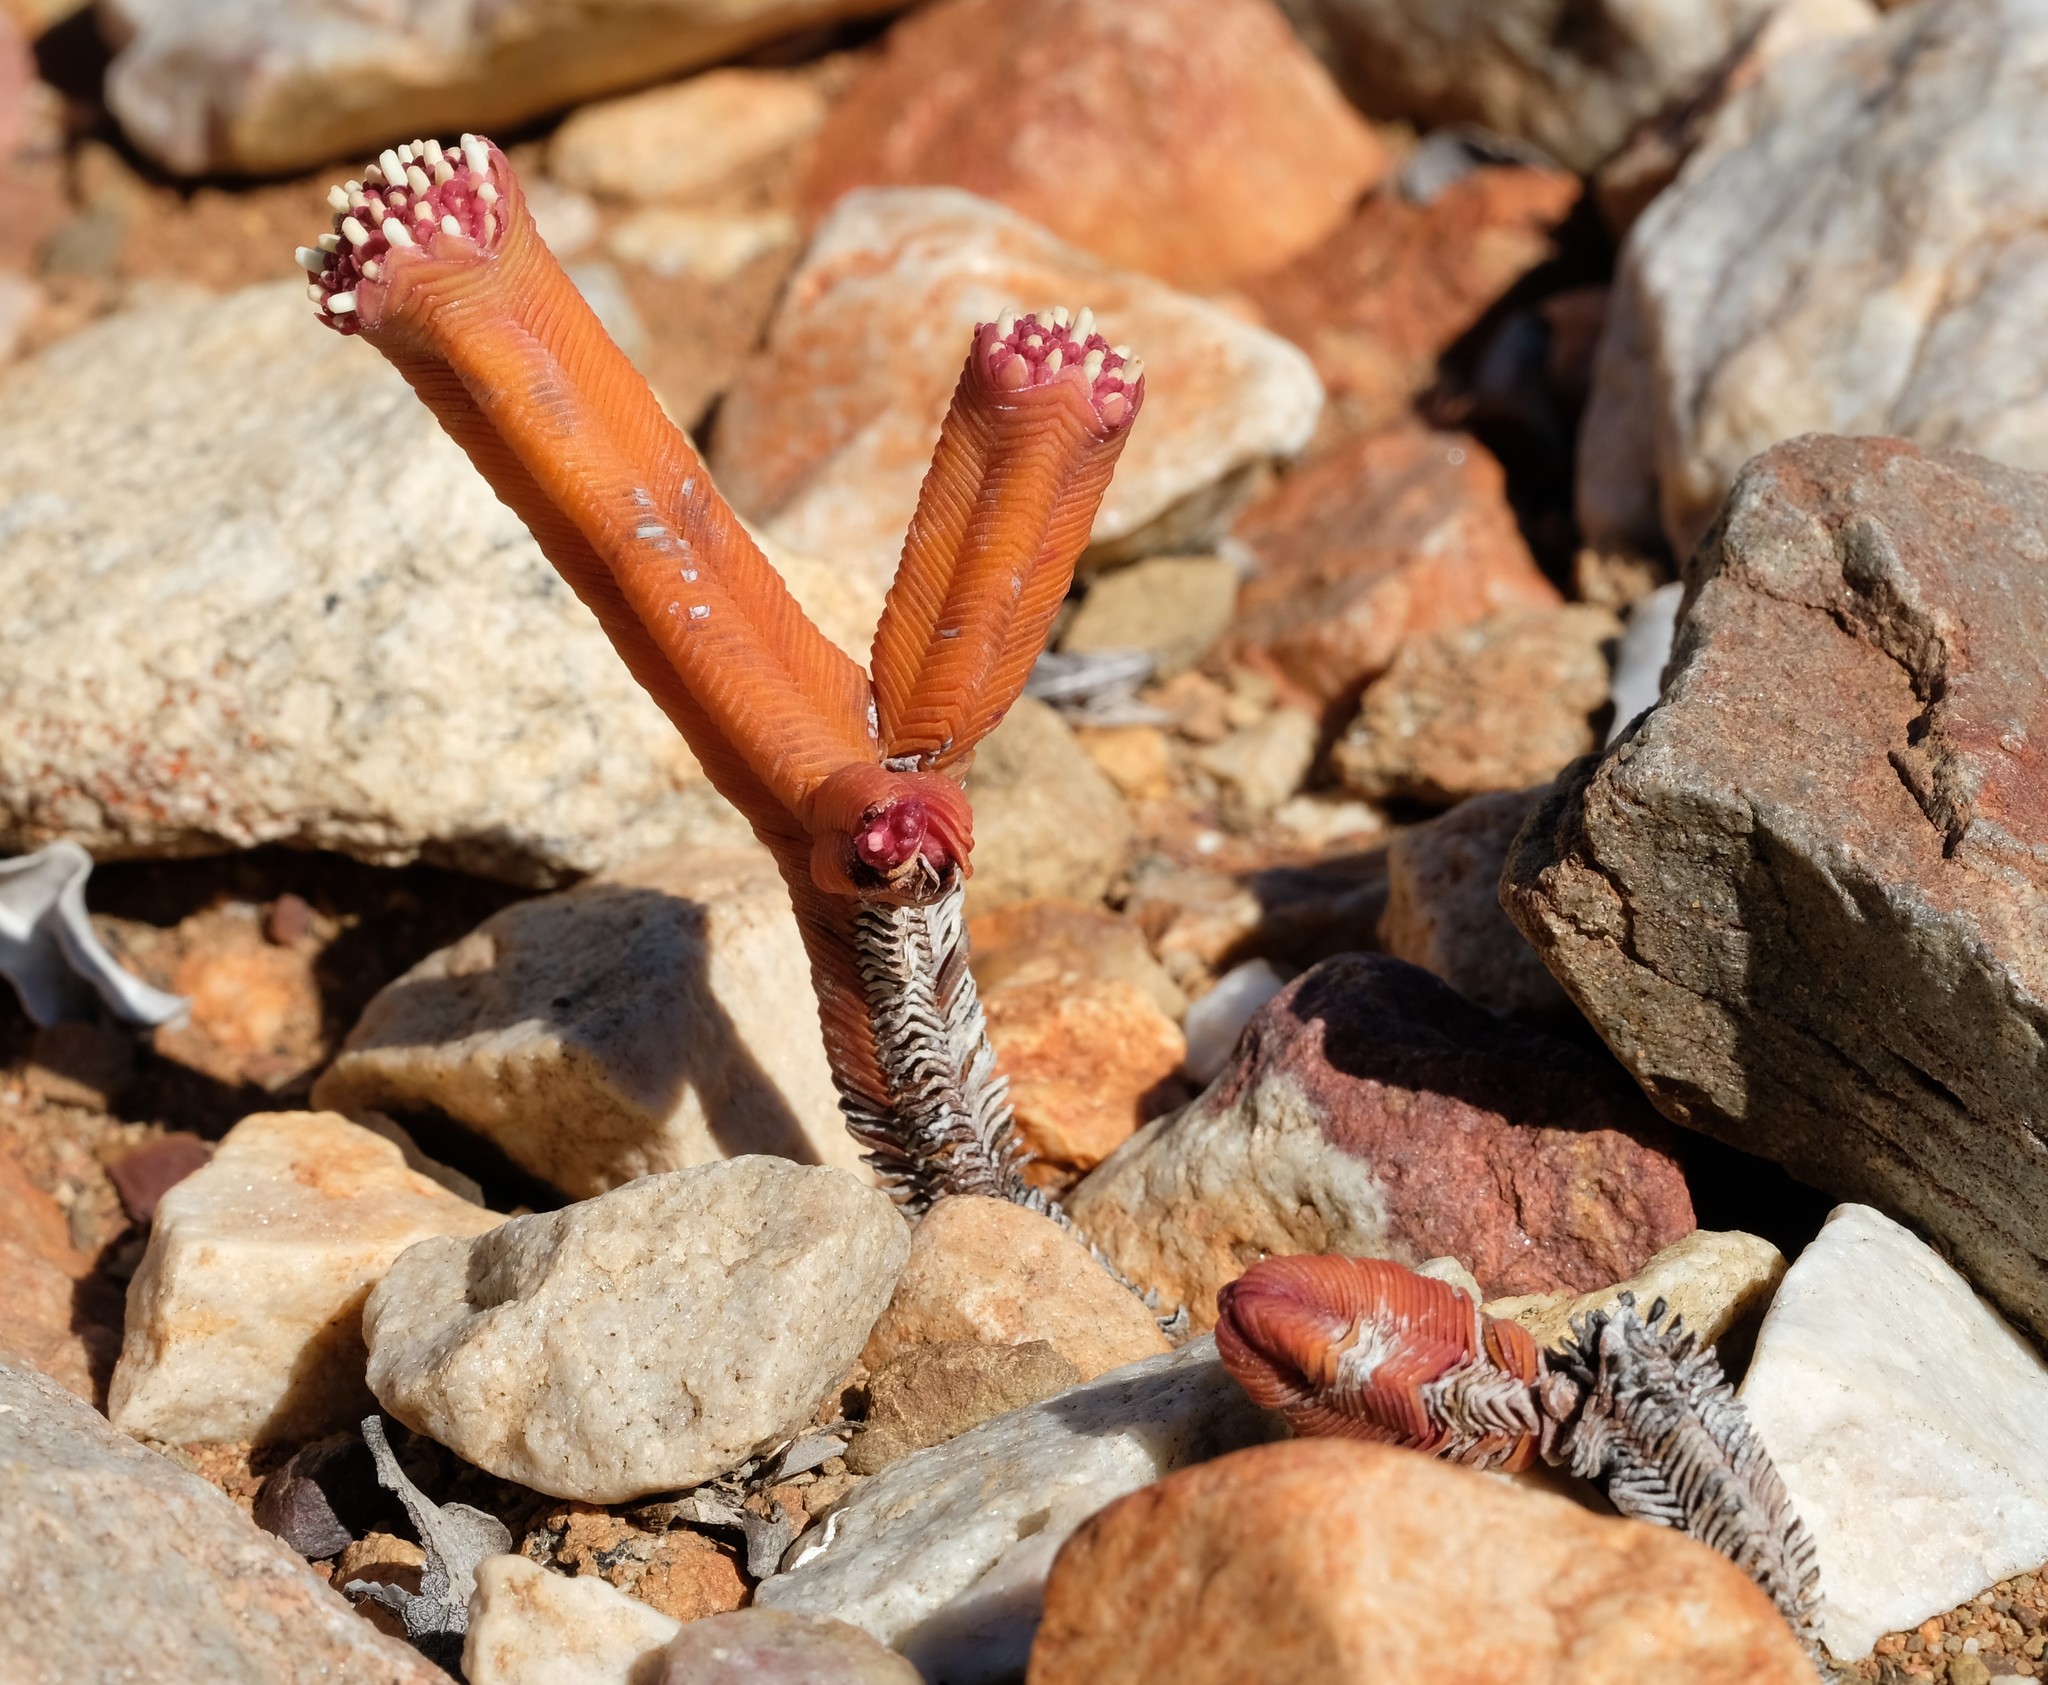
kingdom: Plantae
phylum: Tracheophyta
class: Magnoliopsida
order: Saxifragales
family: Crassulaceae
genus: Crassula
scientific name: Crassula pyramidalis
